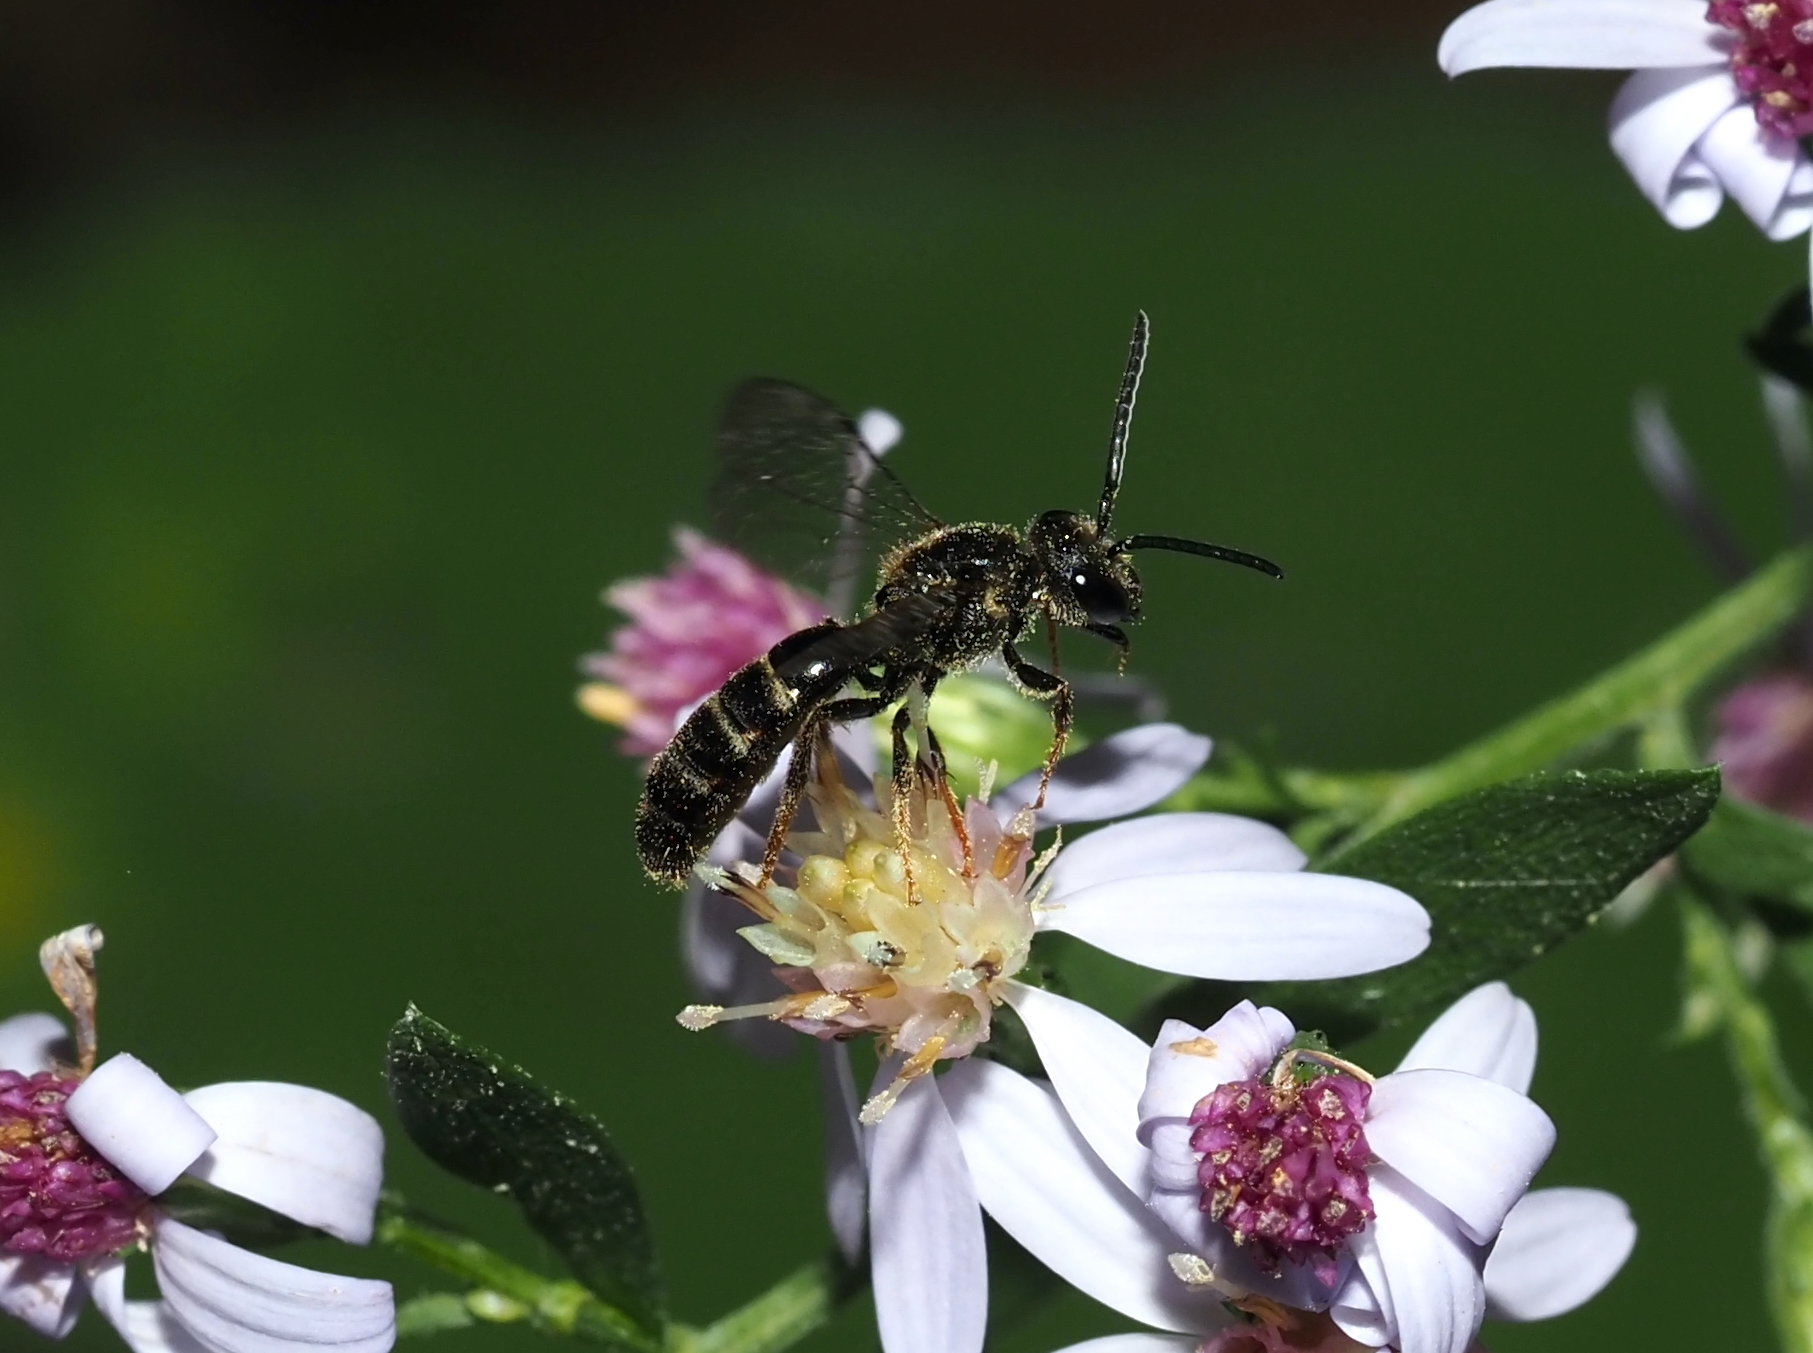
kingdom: Animalia
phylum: Arthropoda
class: Insecta
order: Hymenoptera
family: Halictidae
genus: Lasioglossum
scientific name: Lasioglossum fuscipenne
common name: Brown-winged sweat bee
